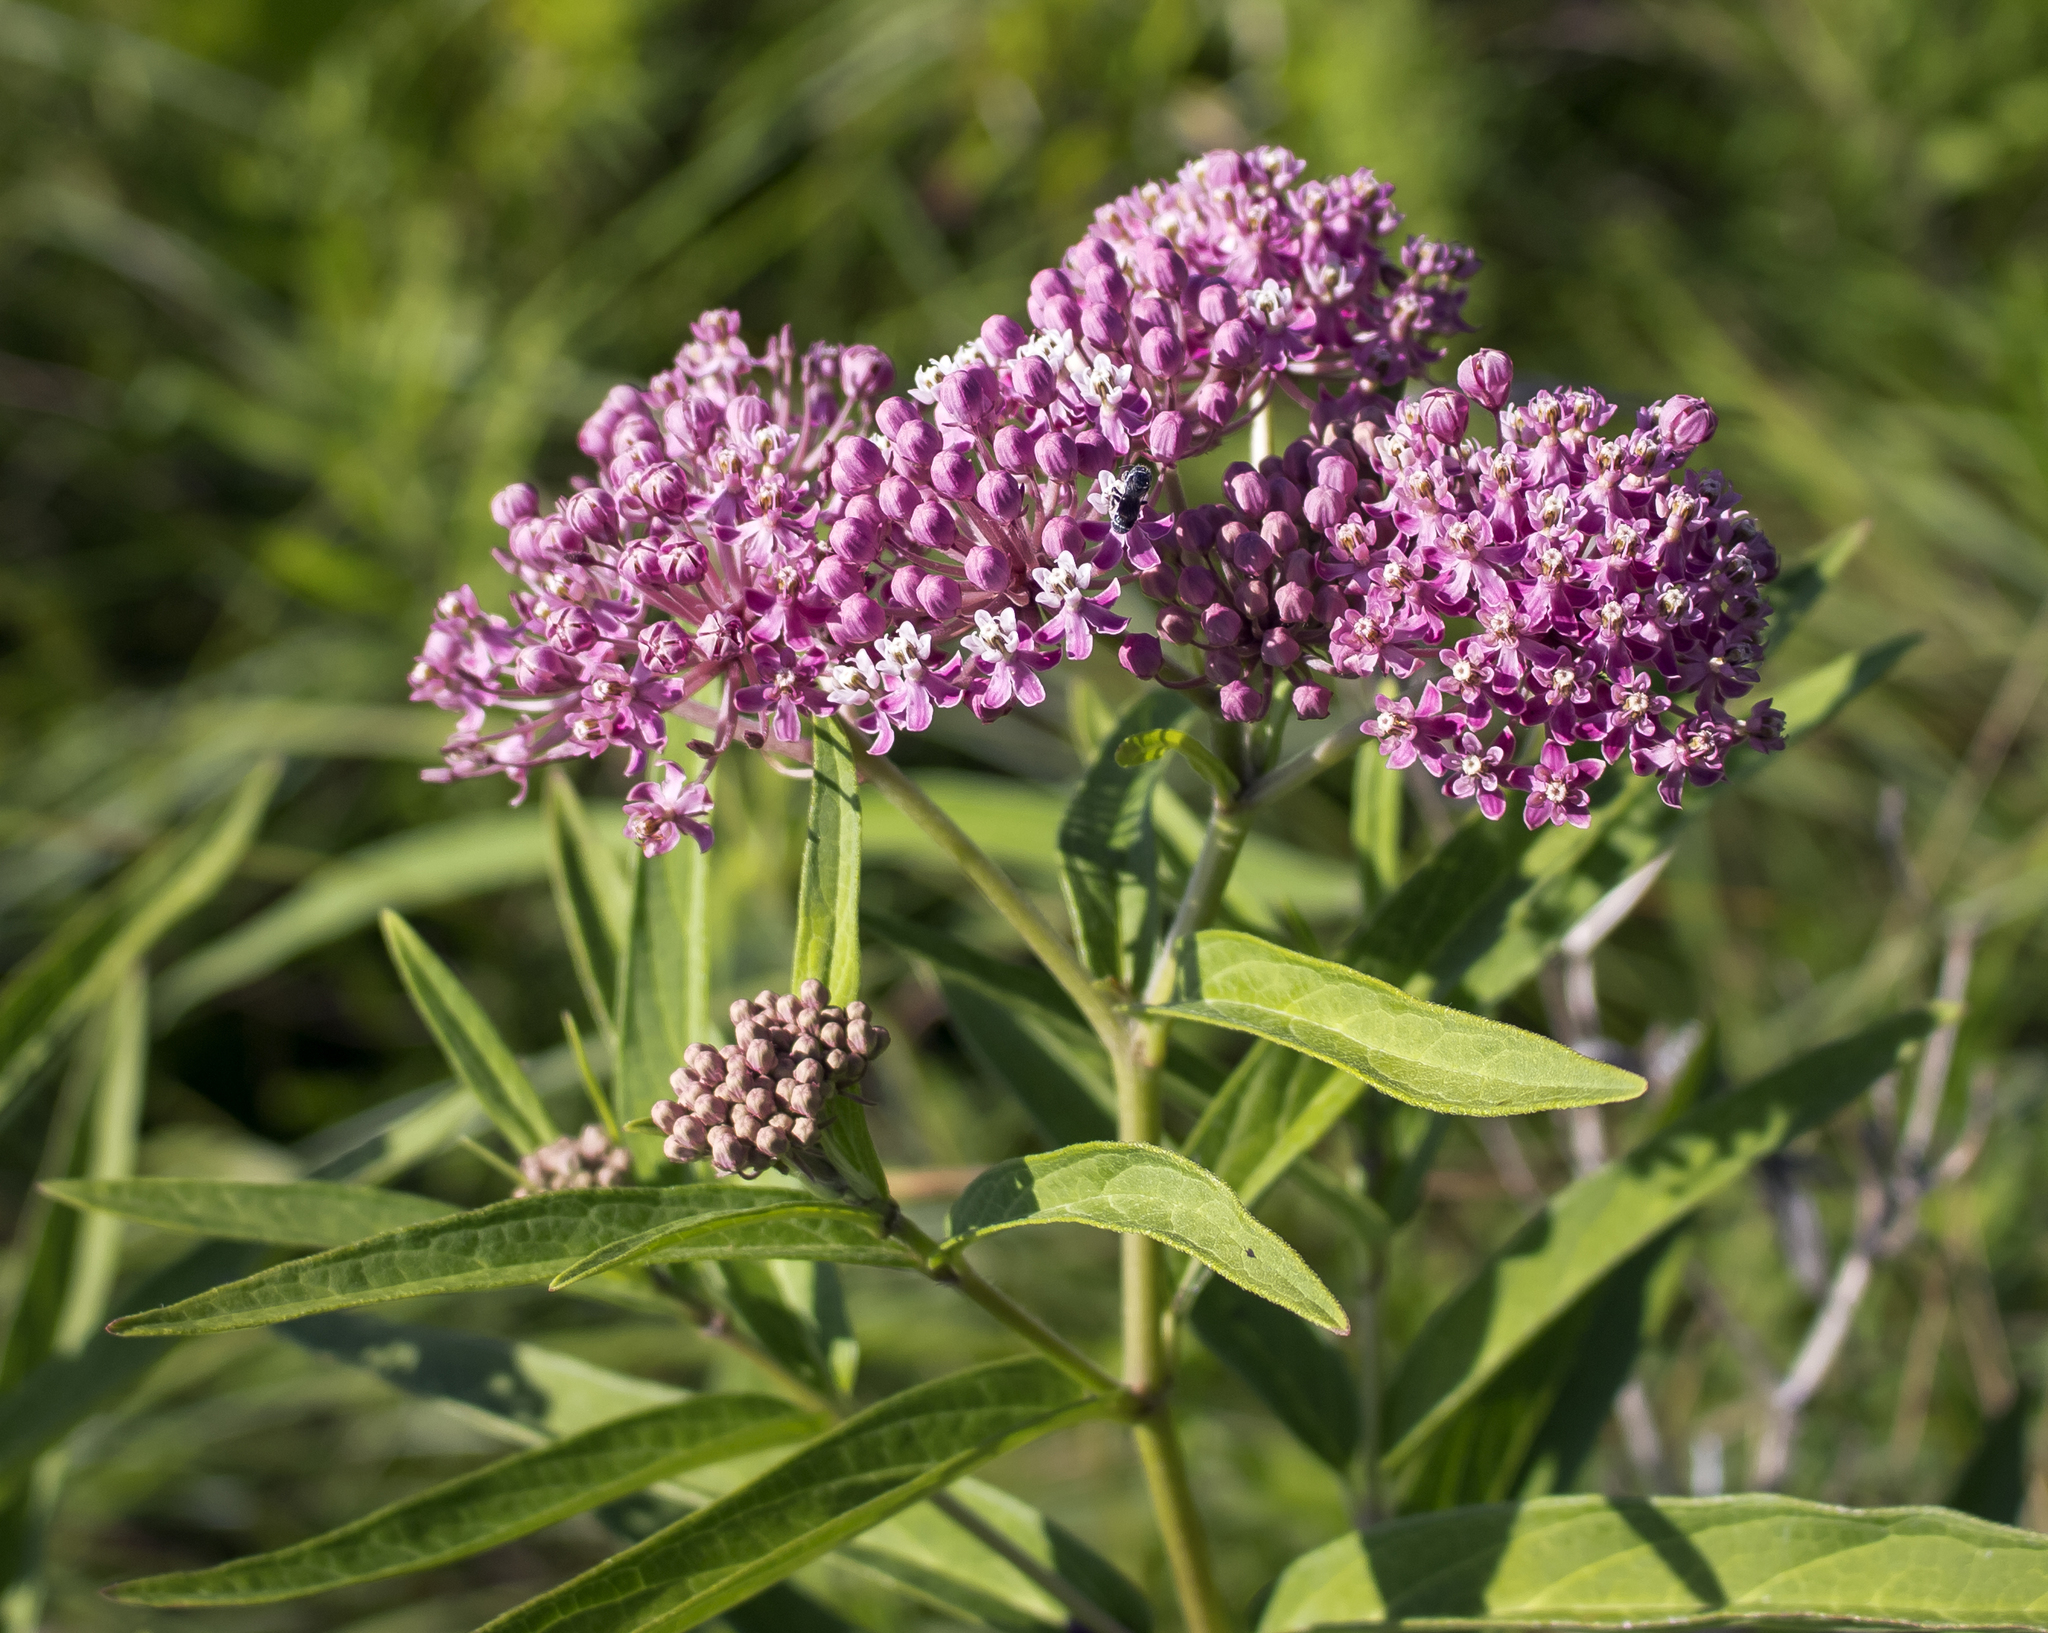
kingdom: Plantae
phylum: Tracheophyta
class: Magnoliopsida
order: Gentianales
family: Apocynaceae
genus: Asclepias
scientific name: Asclepias incarnata
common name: Swamp milkweed
